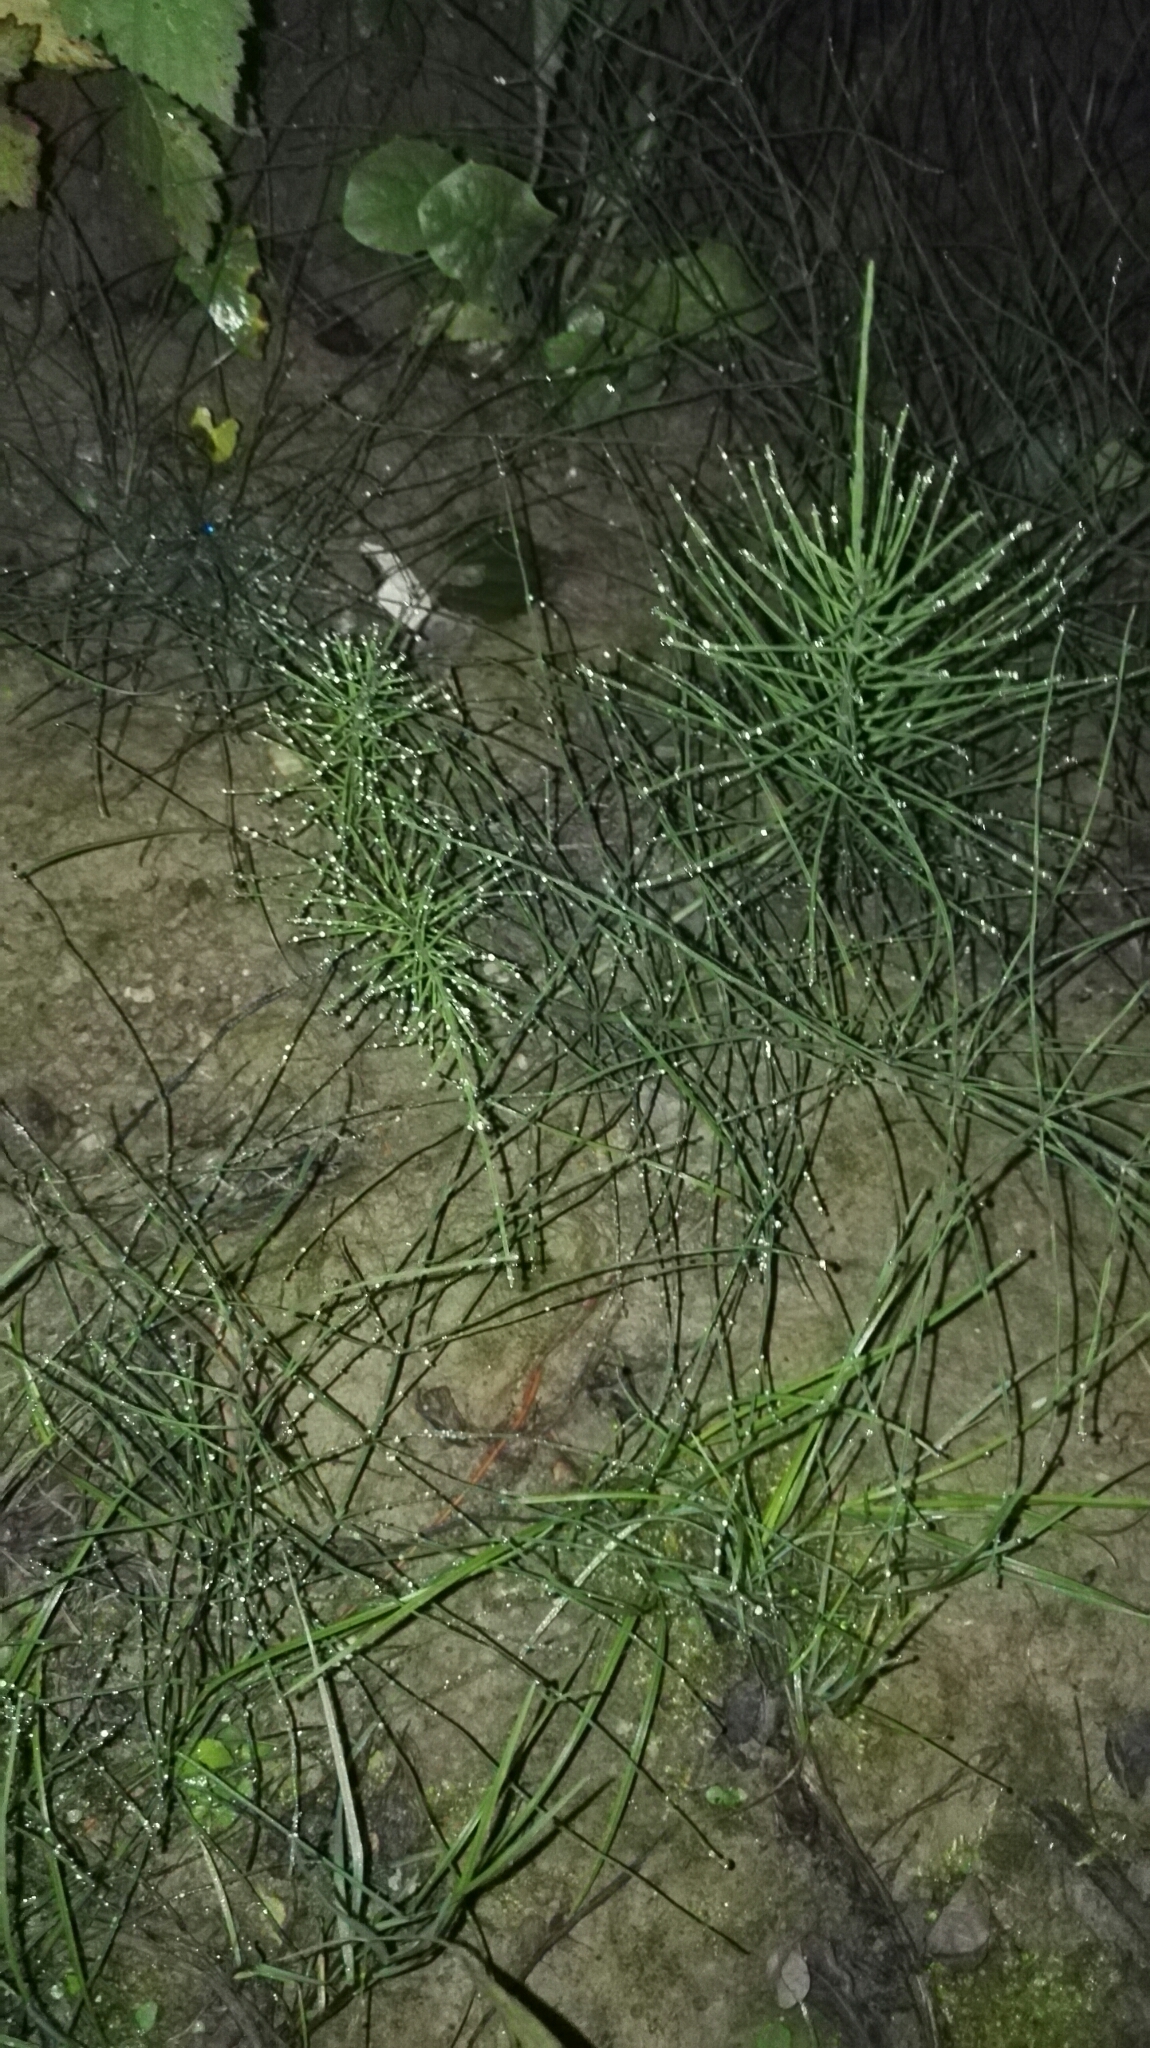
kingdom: Plantae
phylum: Tracheophyta
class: Polypodiopsida
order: Equisetales
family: Equisetaceae
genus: Equisetum
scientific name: Equisetum arvense
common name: Field horsetail
